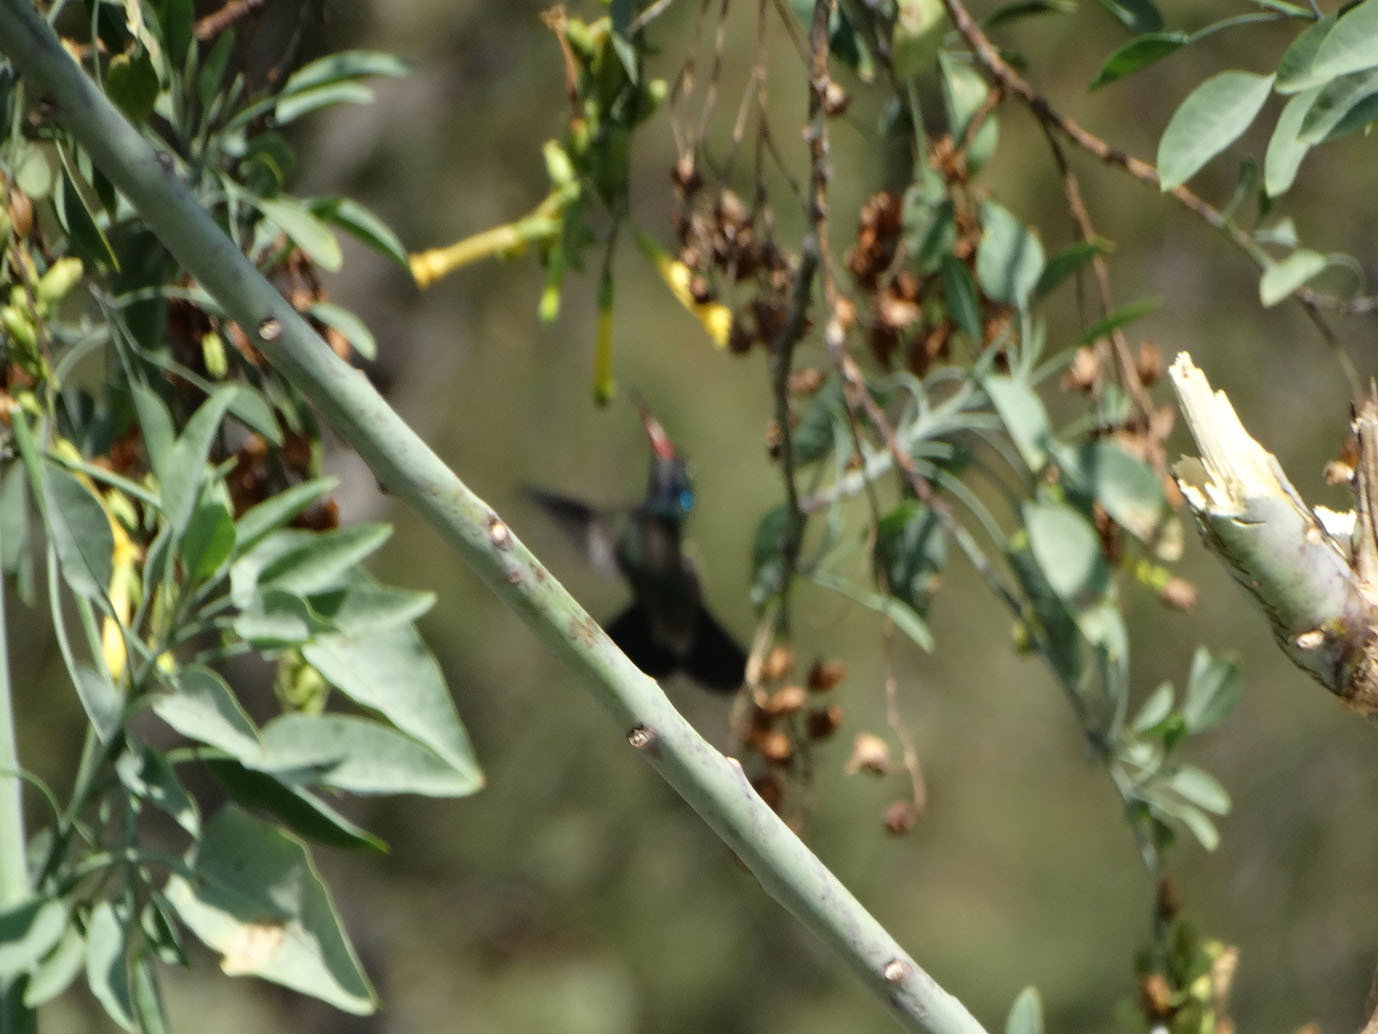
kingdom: Animalia
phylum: Chordata
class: Aves
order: Apodiformes
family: Trochilidae
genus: Cynanthus
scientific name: Cynanthus latirostris
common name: Broad-billed hummingbird
